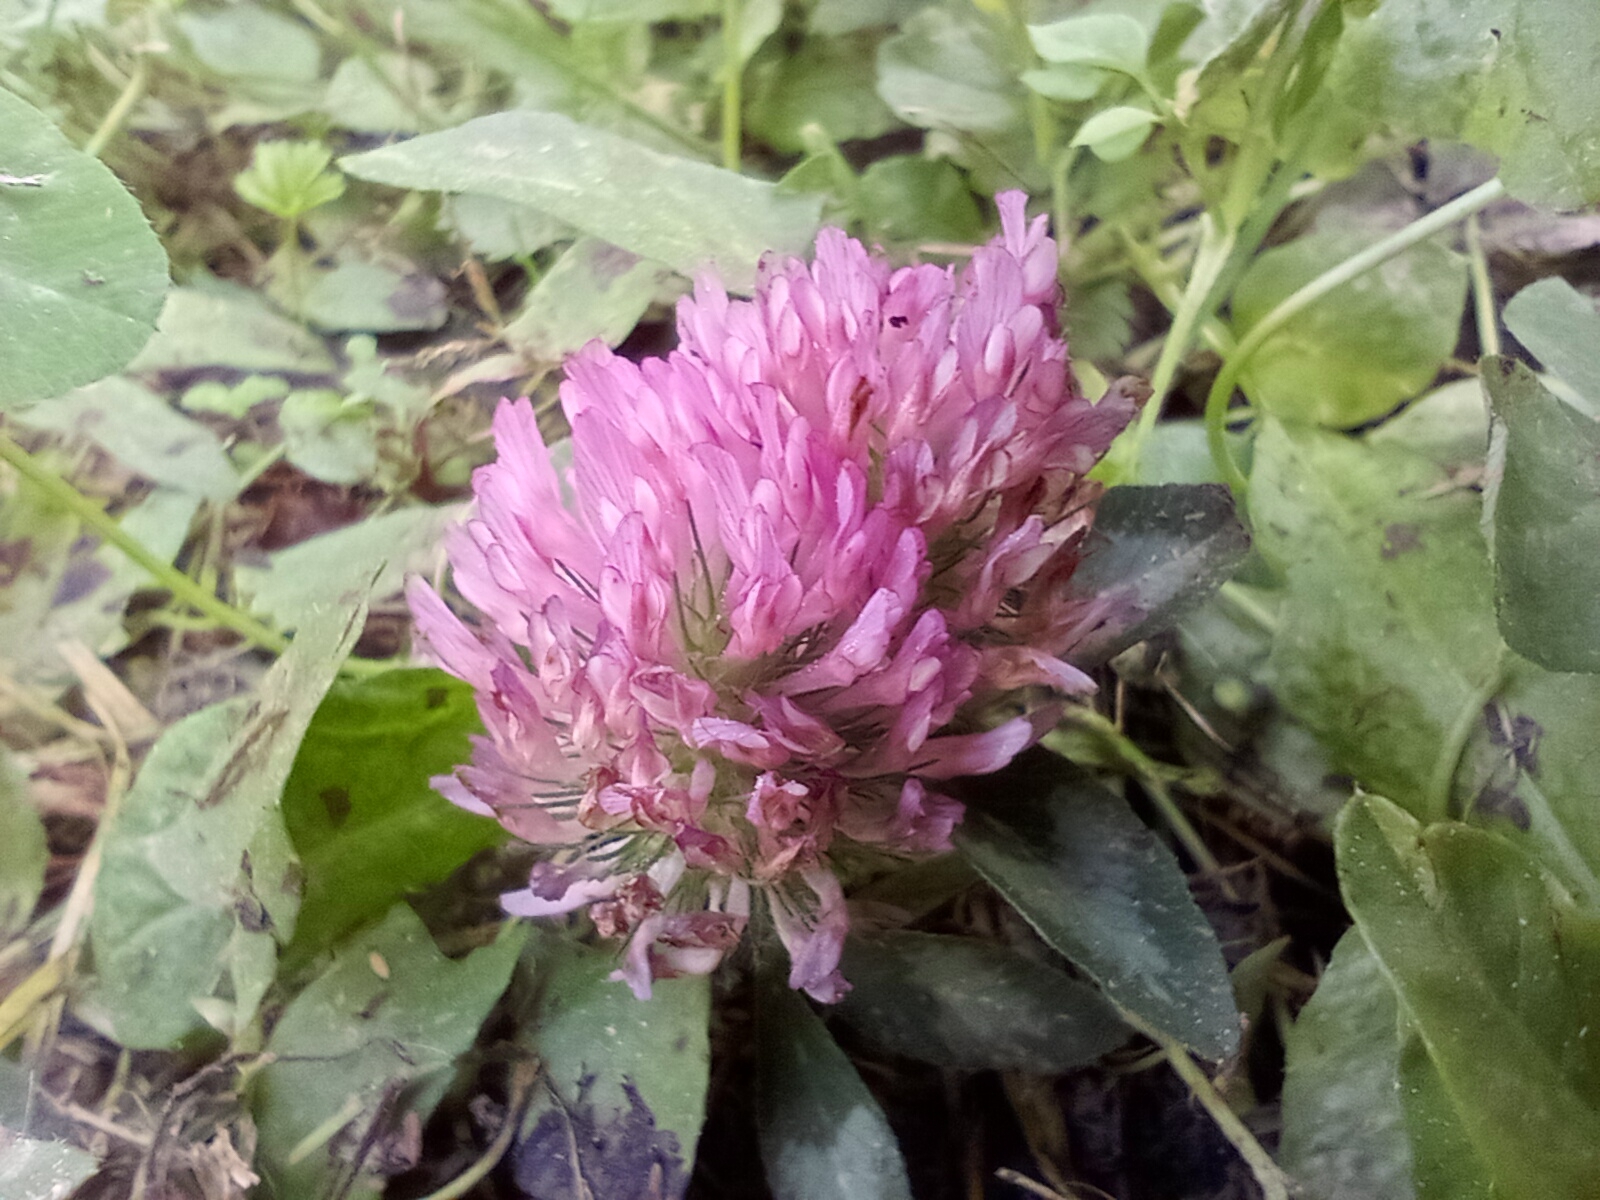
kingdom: Plantae
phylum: Tracheophyta
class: Magnoliopsida
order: Fabales
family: Fabaceae
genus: Trifolium
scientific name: Trifolium pratense
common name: Red clover
